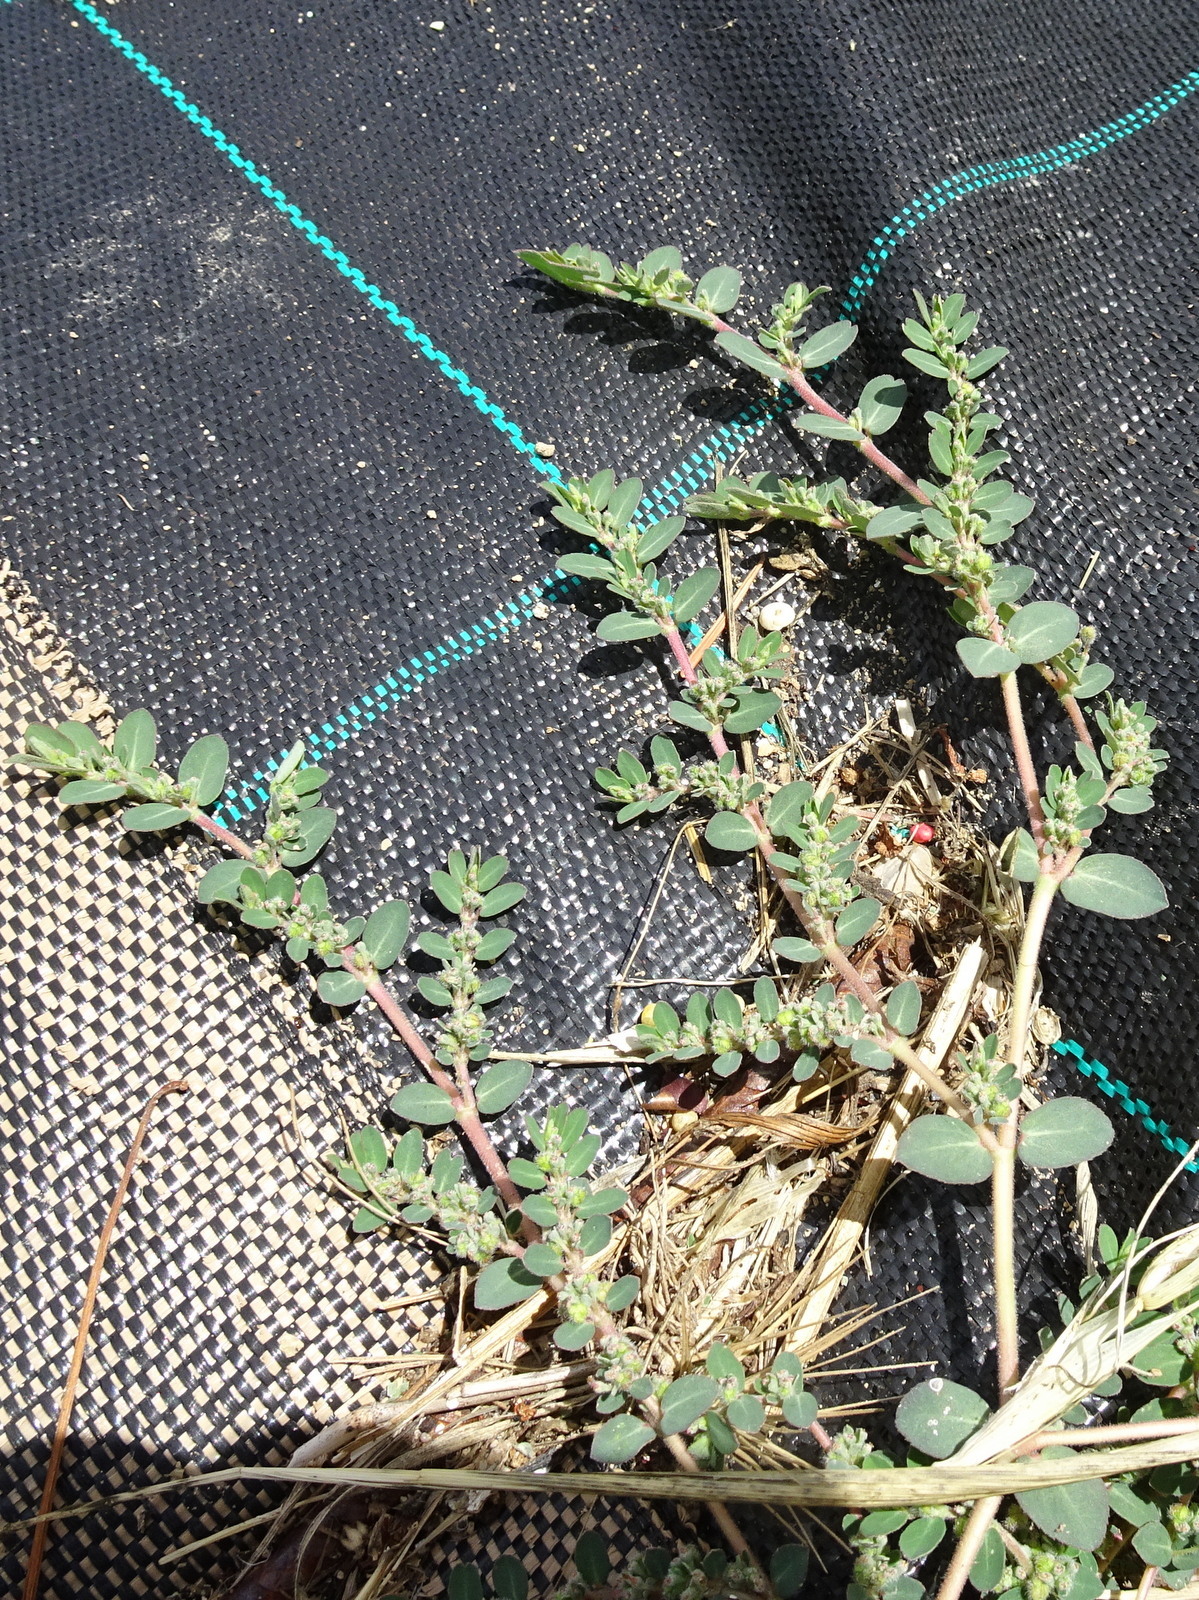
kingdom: Plantae
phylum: Tracheophyta
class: Magnoliopsida
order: Malpighiales
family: Euphorbiaceae
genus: Euphorbia
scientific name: Euphorbia prostrata
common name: Prostrate sandmat
